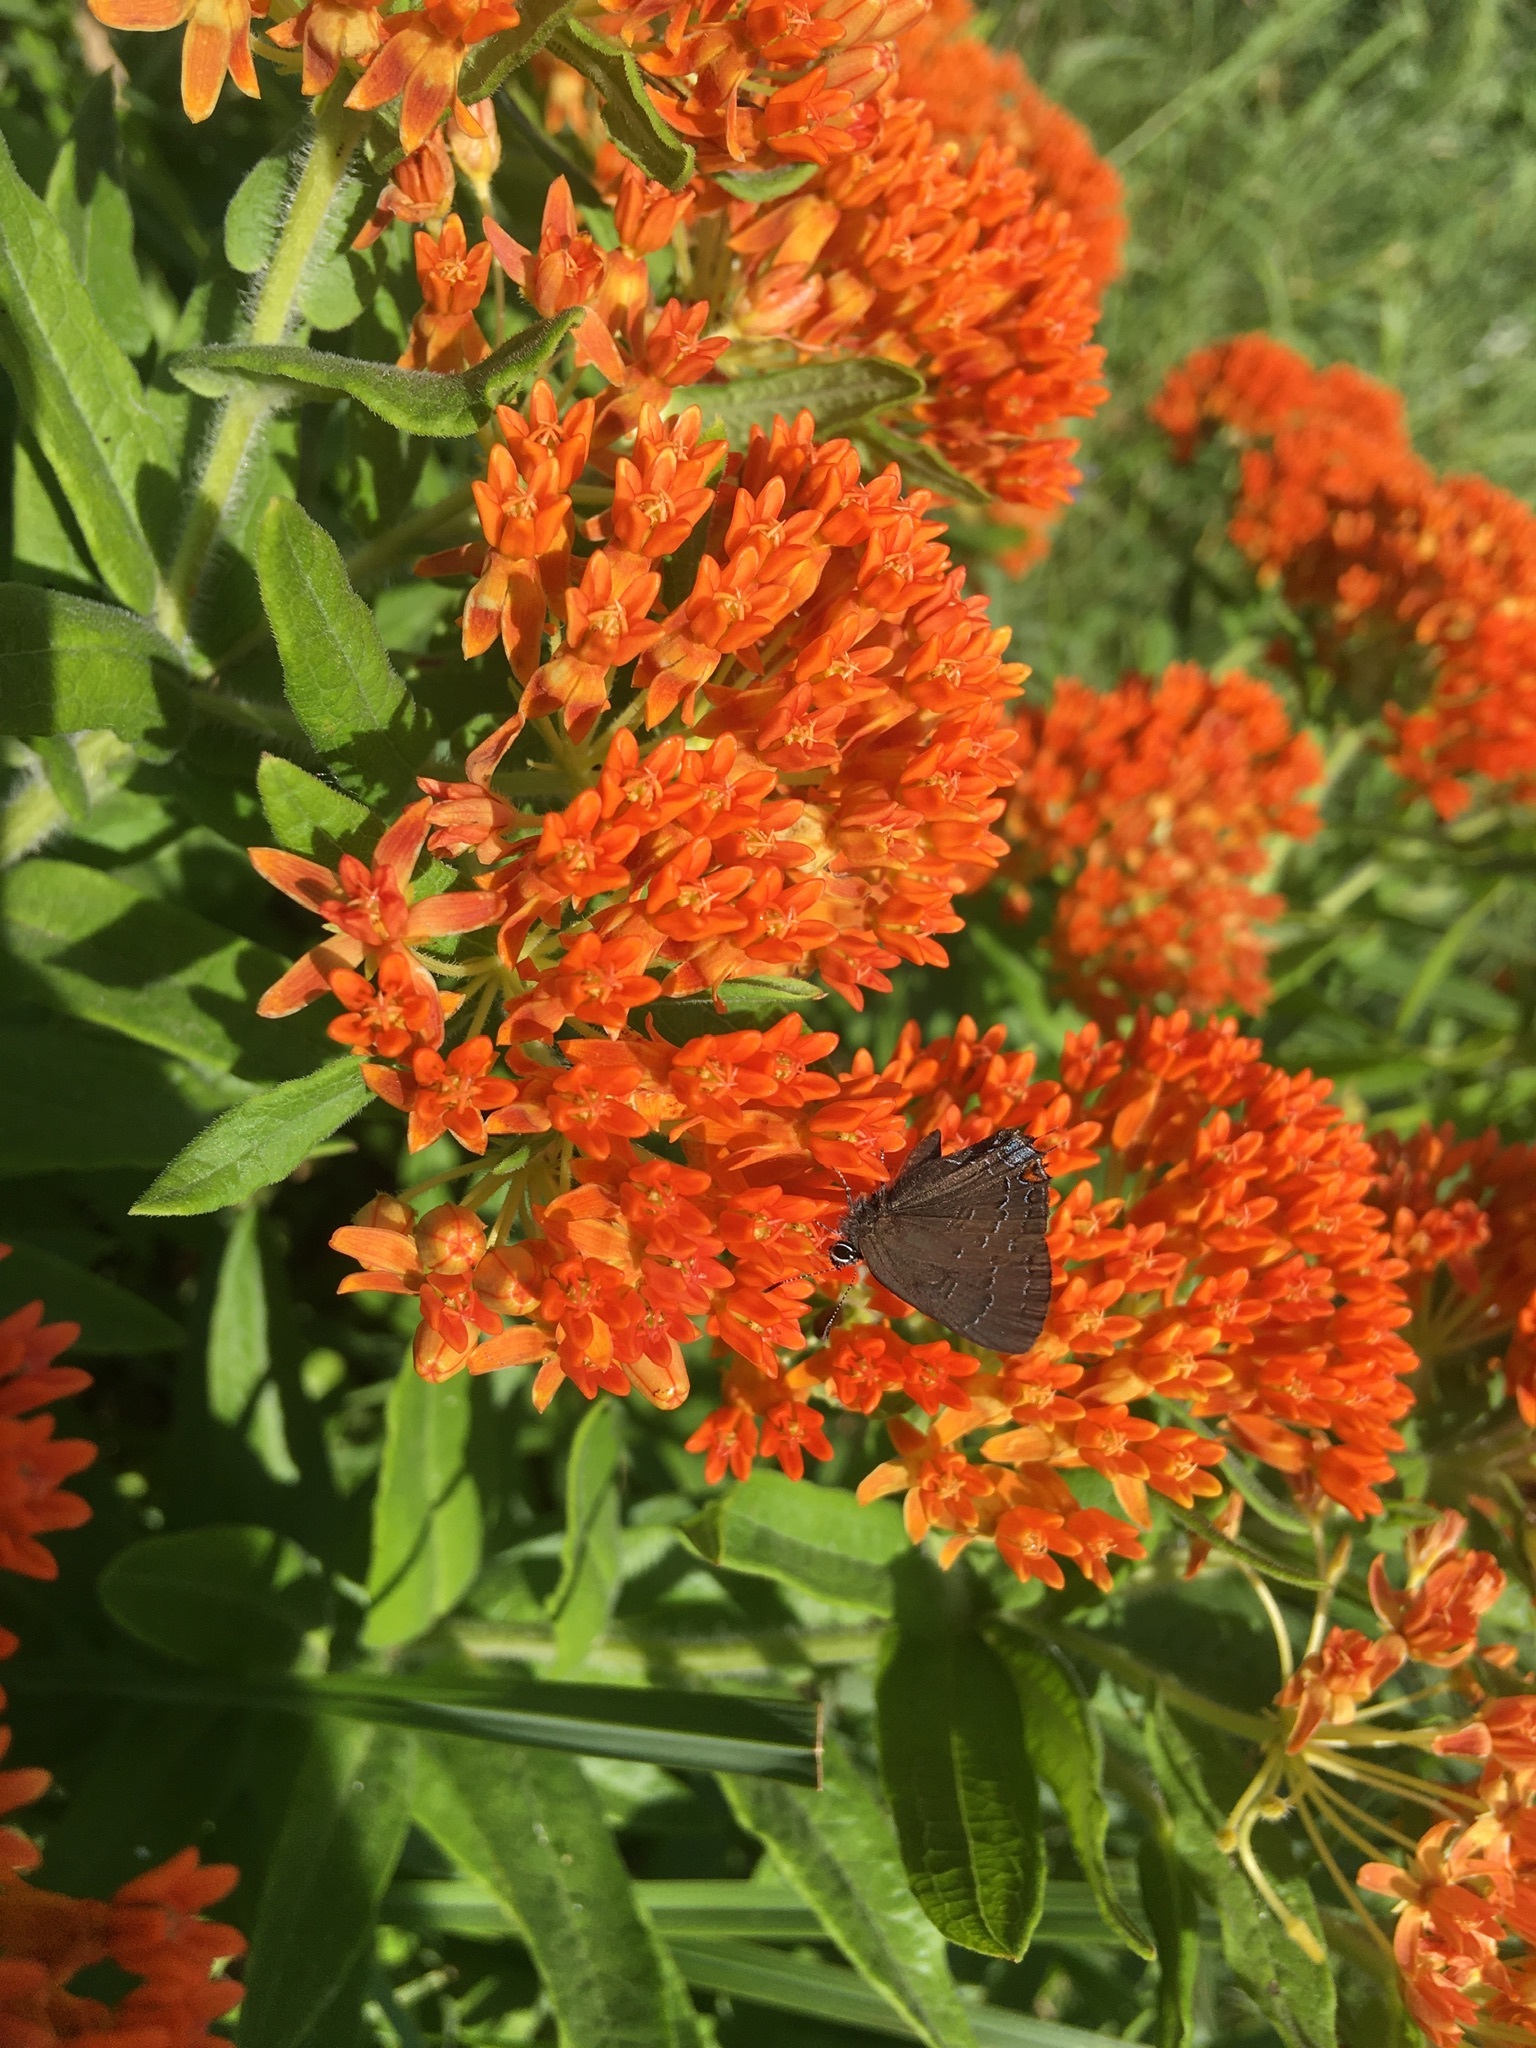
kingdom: Animalia
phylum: Arthropoda
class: Insecta
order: Lepidoptera
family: Lycaenidae
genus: Satyrium
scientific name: Satyrium calanus
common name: Banded hairstreak
